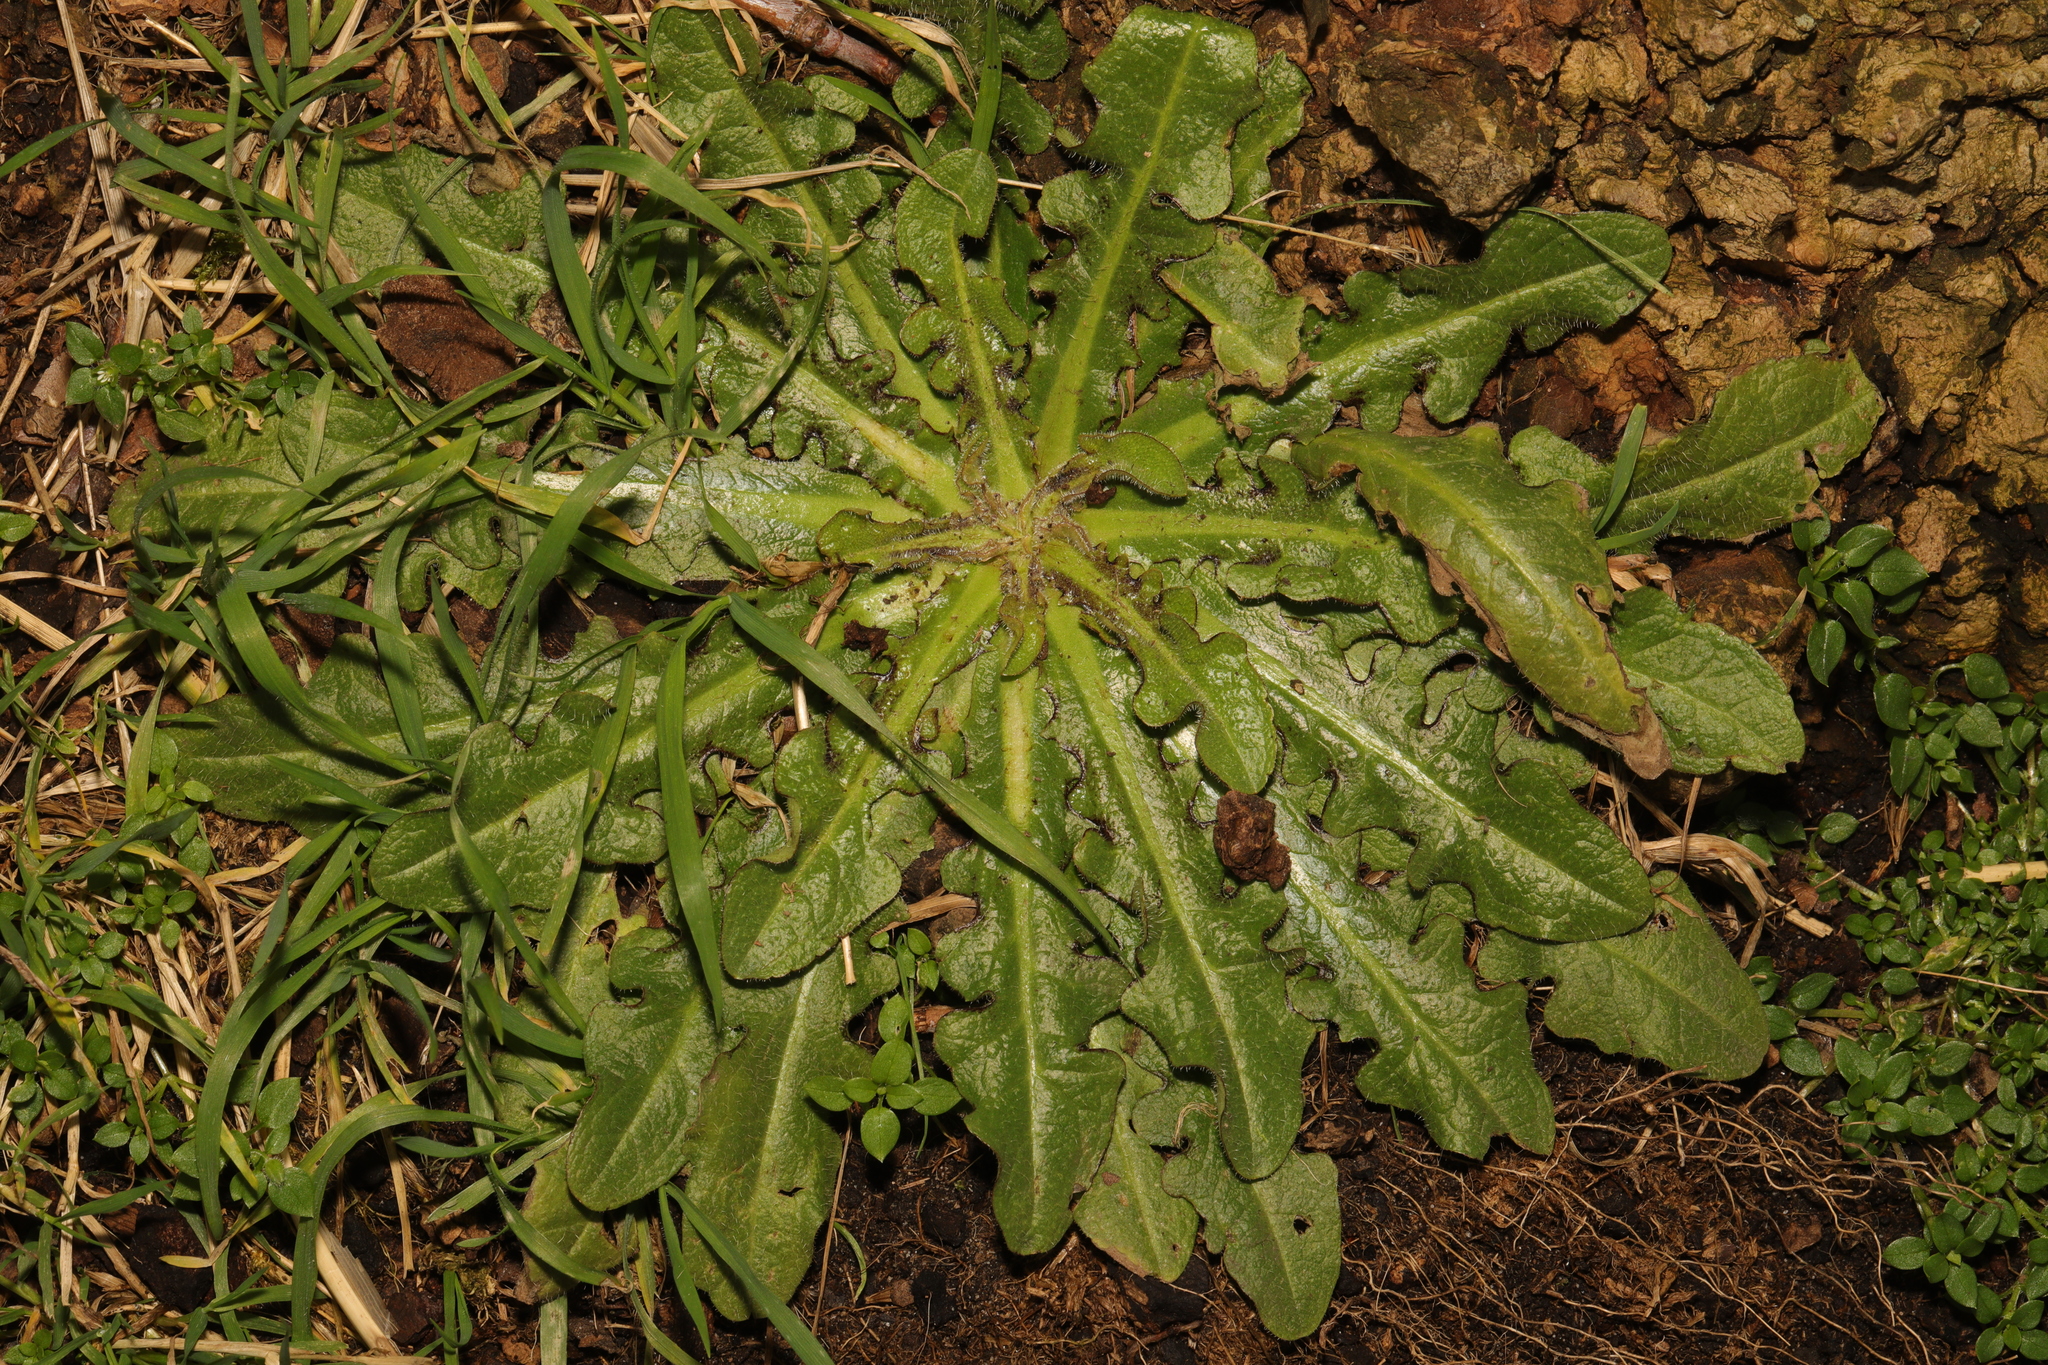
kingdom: Plantae
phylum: Tracheophyta
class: Magnoliopsida
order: Asterales
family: Asteraceae
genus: Hypochaeris
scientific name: Hypochaeris radicata
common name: Flatweed
